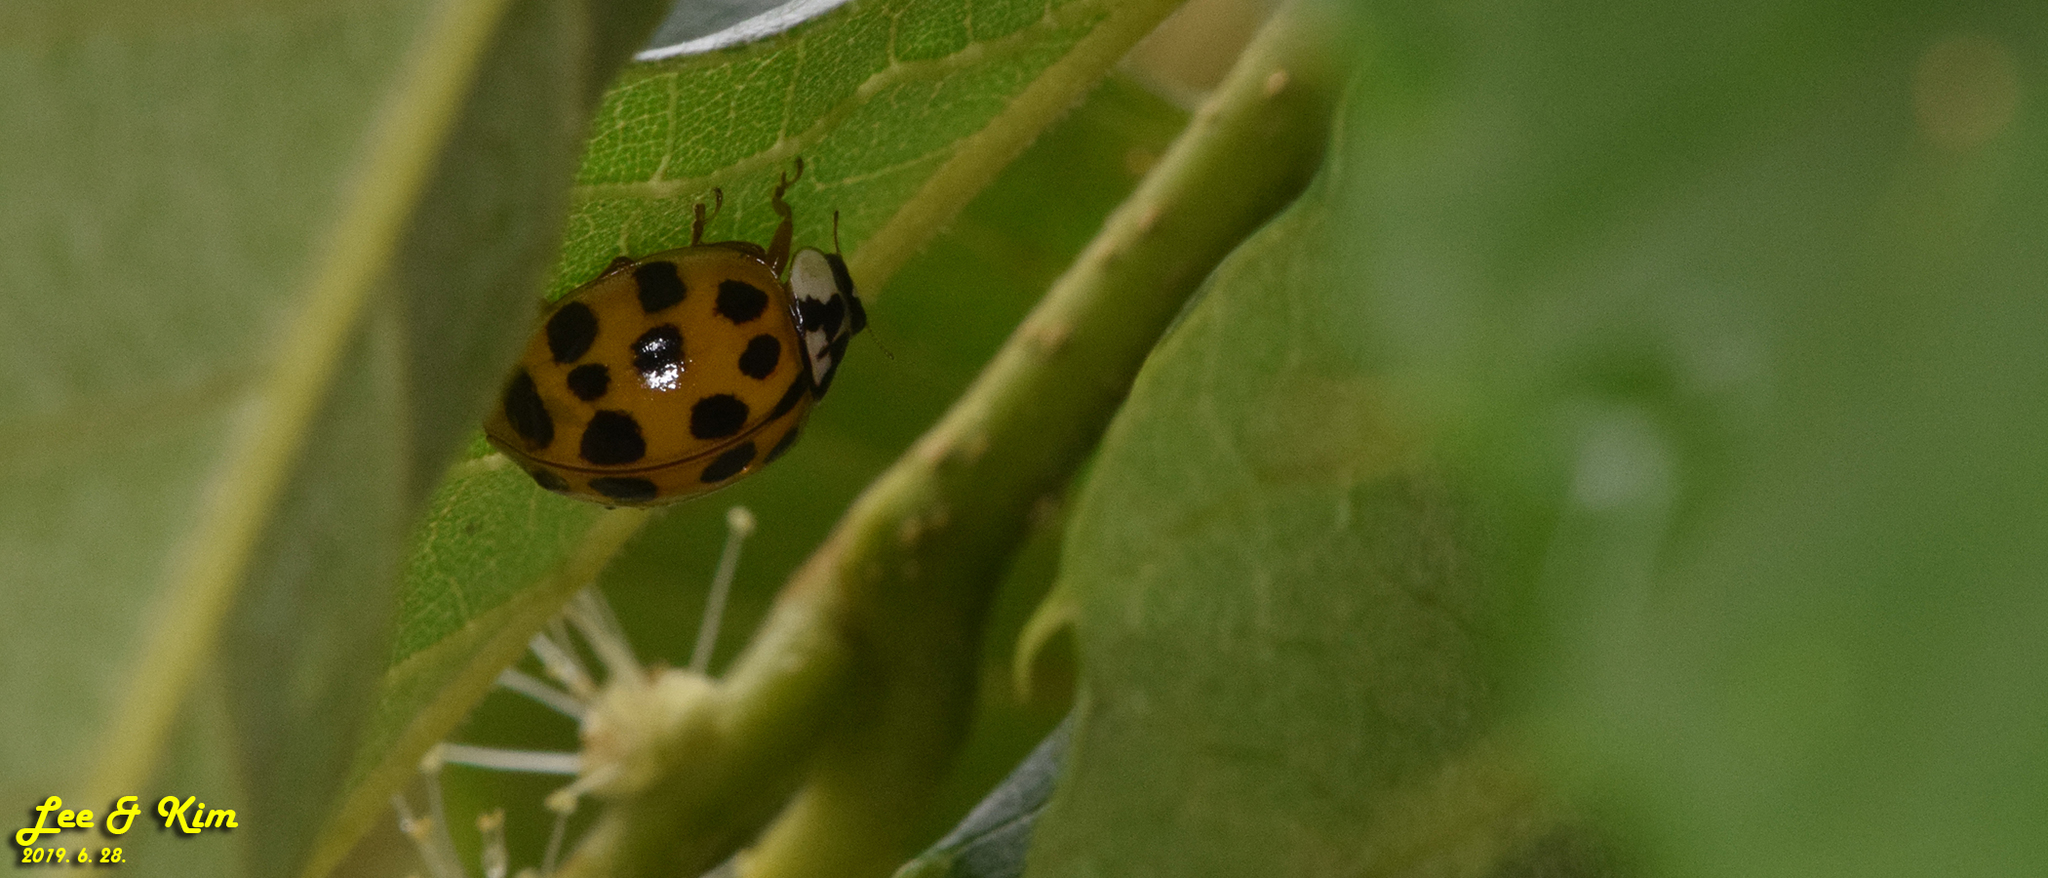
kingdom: Animalia
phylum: Arthropoda
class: Insecta
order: Coleoptera
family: Coccinellidae
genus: Harmonia
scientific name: Harmonia axyridis
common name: Harlequin ladybird
